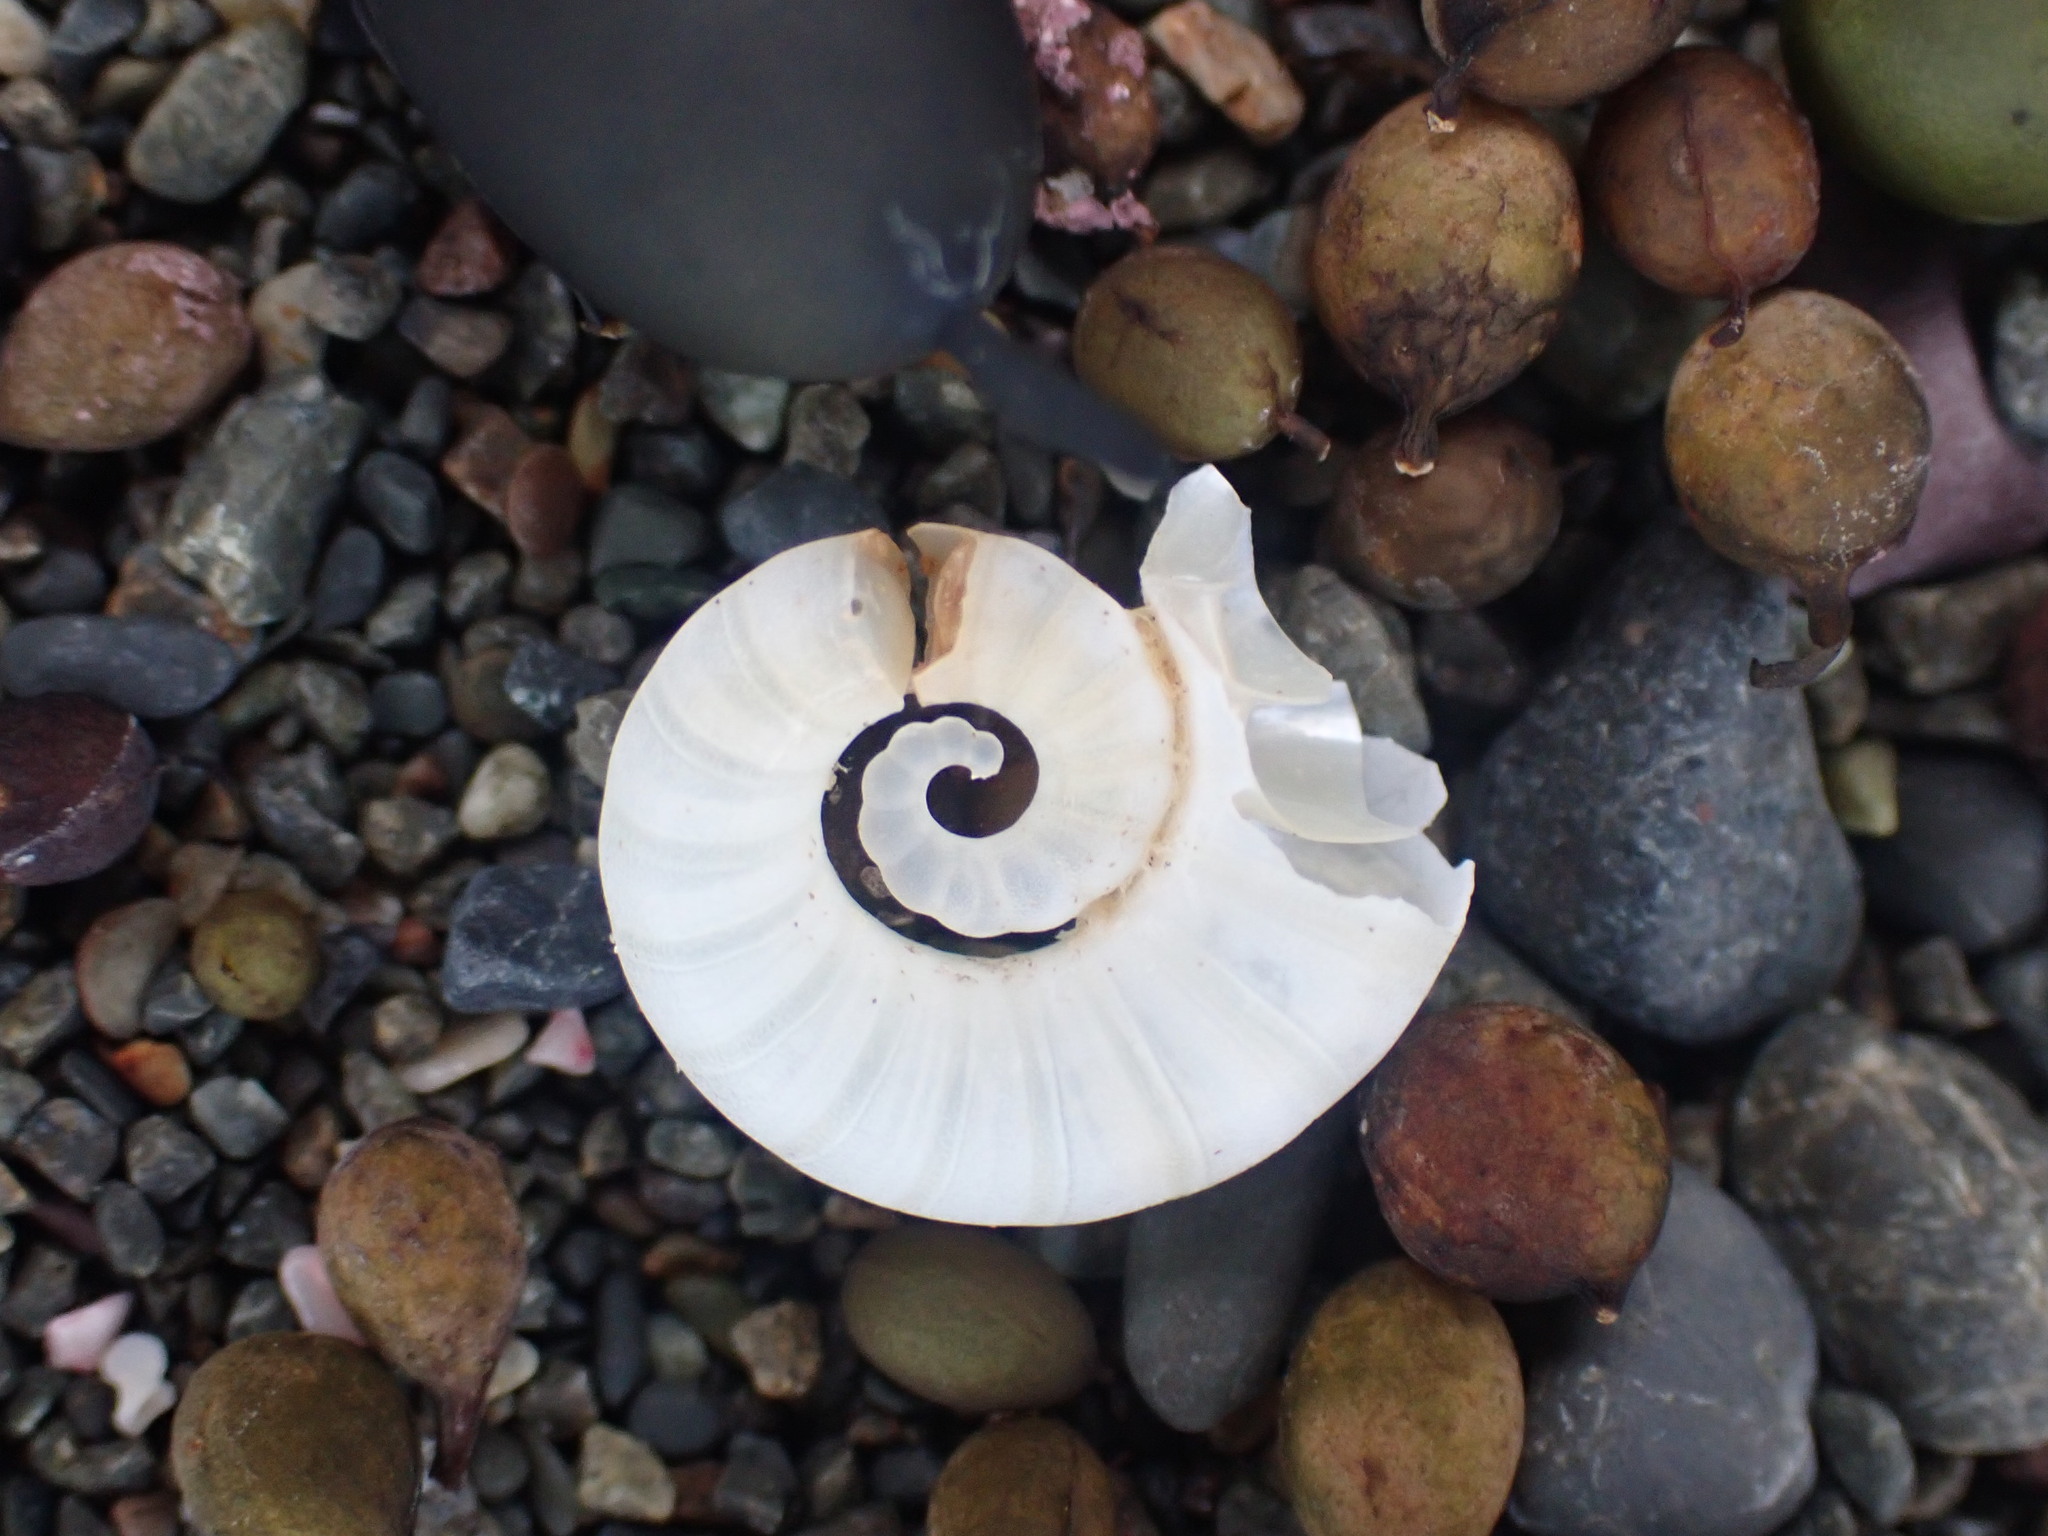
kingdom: Animalia
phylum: Mollusca
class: Cephalopoda
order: Spirulida
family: Spirulidae
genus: Spirula
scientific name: Spirula spirula
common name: Ram's horn squid
